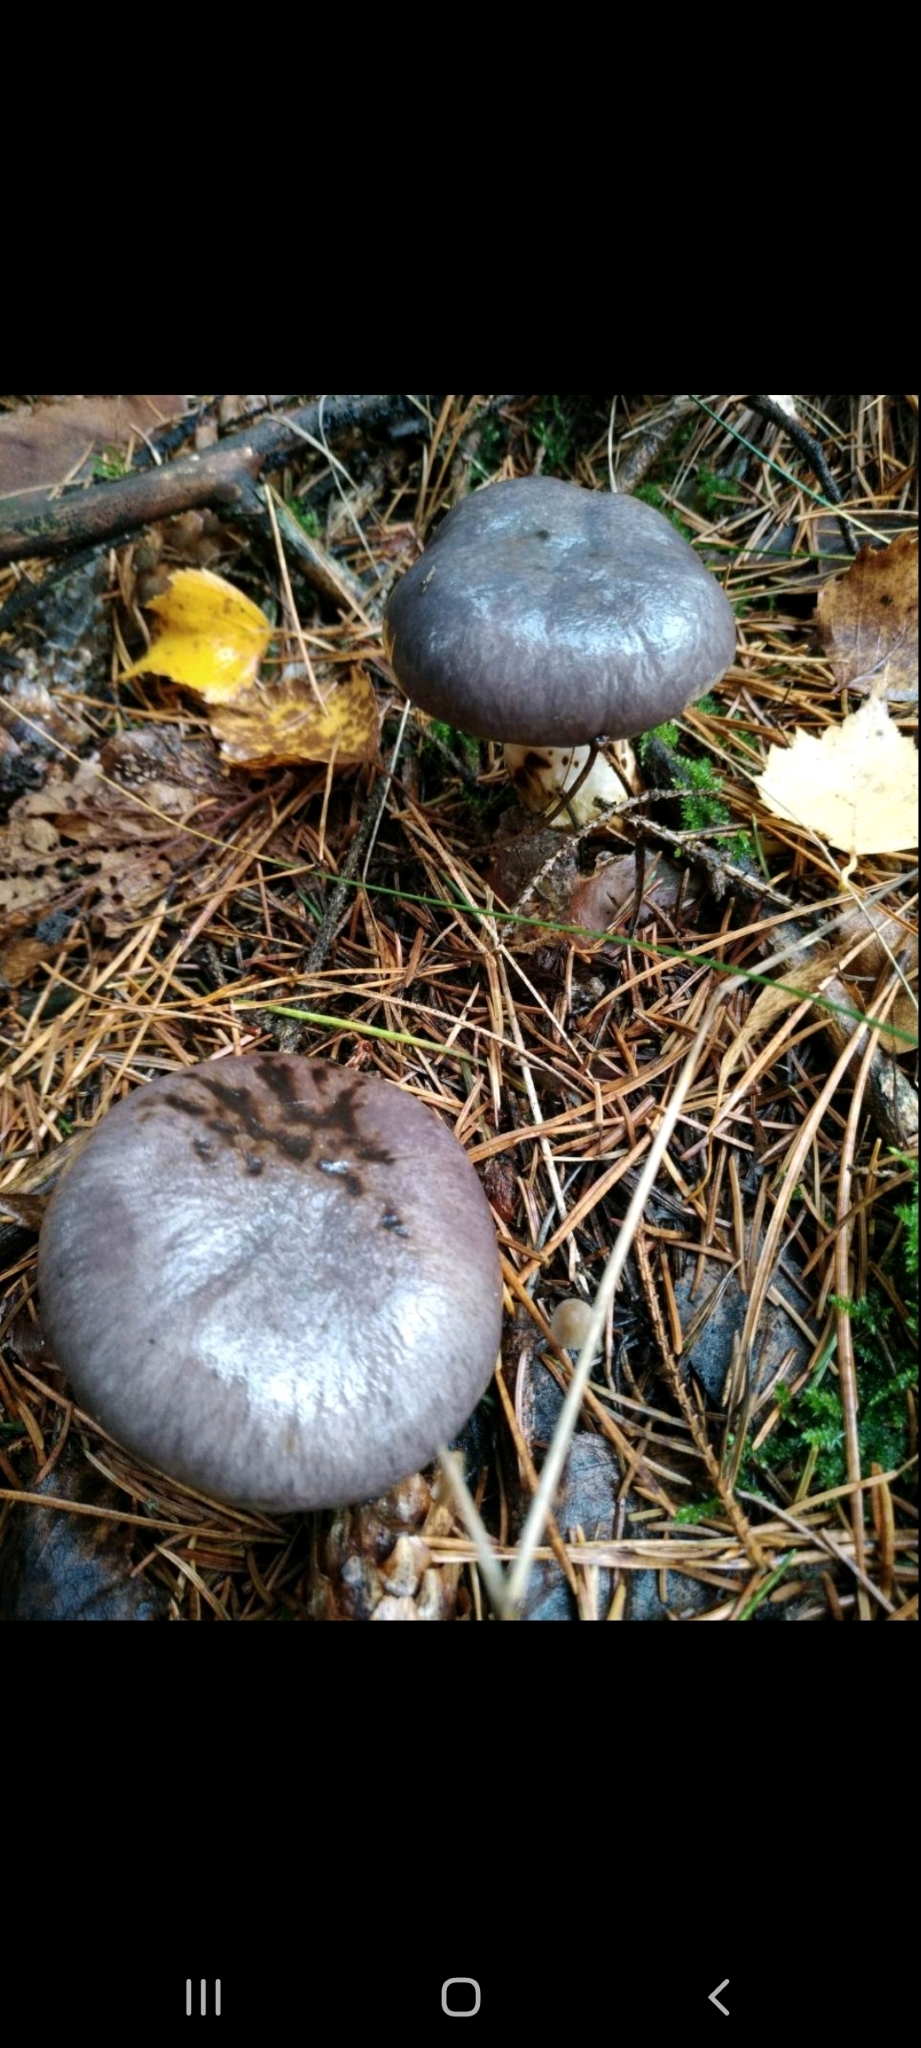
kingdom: Fungi
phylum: Basidiomycota
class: Agaricomycetes
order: Boletales
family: Gomphidiaceae
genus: Gomphidius
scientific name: Gomphidius glutinosus
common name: Slimy spike
